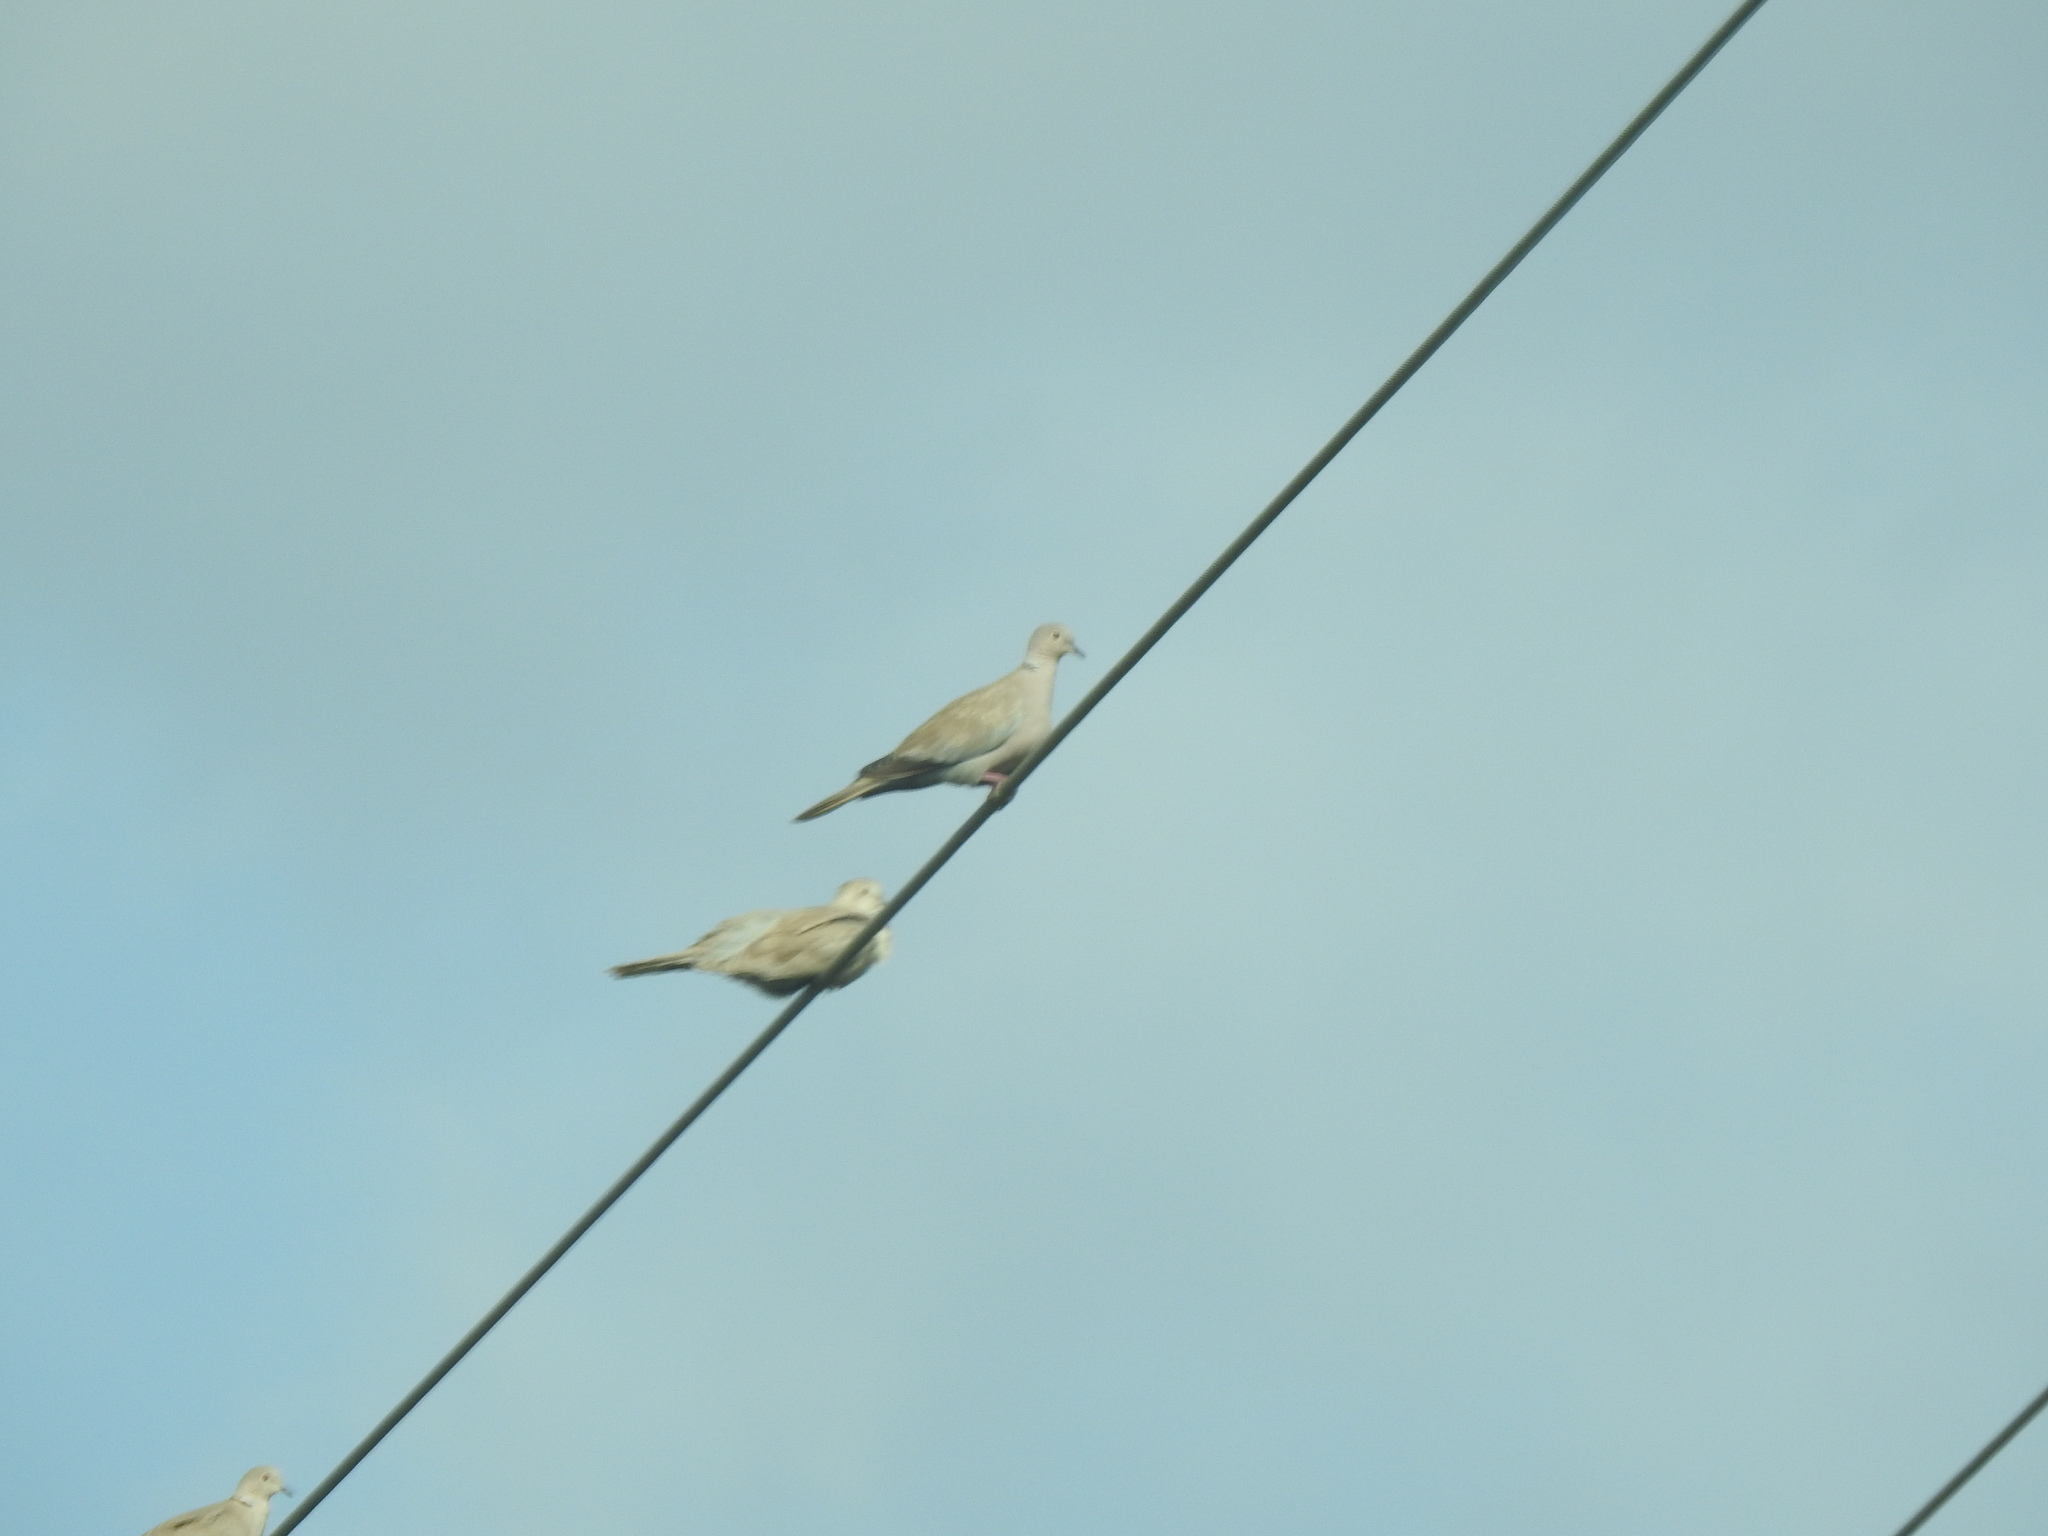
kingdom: Animalia
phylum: Chordata
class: Aves
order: Columbiformes
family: Columbidae
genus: Streptopelia
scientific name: Streptopelia decaocto
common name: Eurasian collared dove
